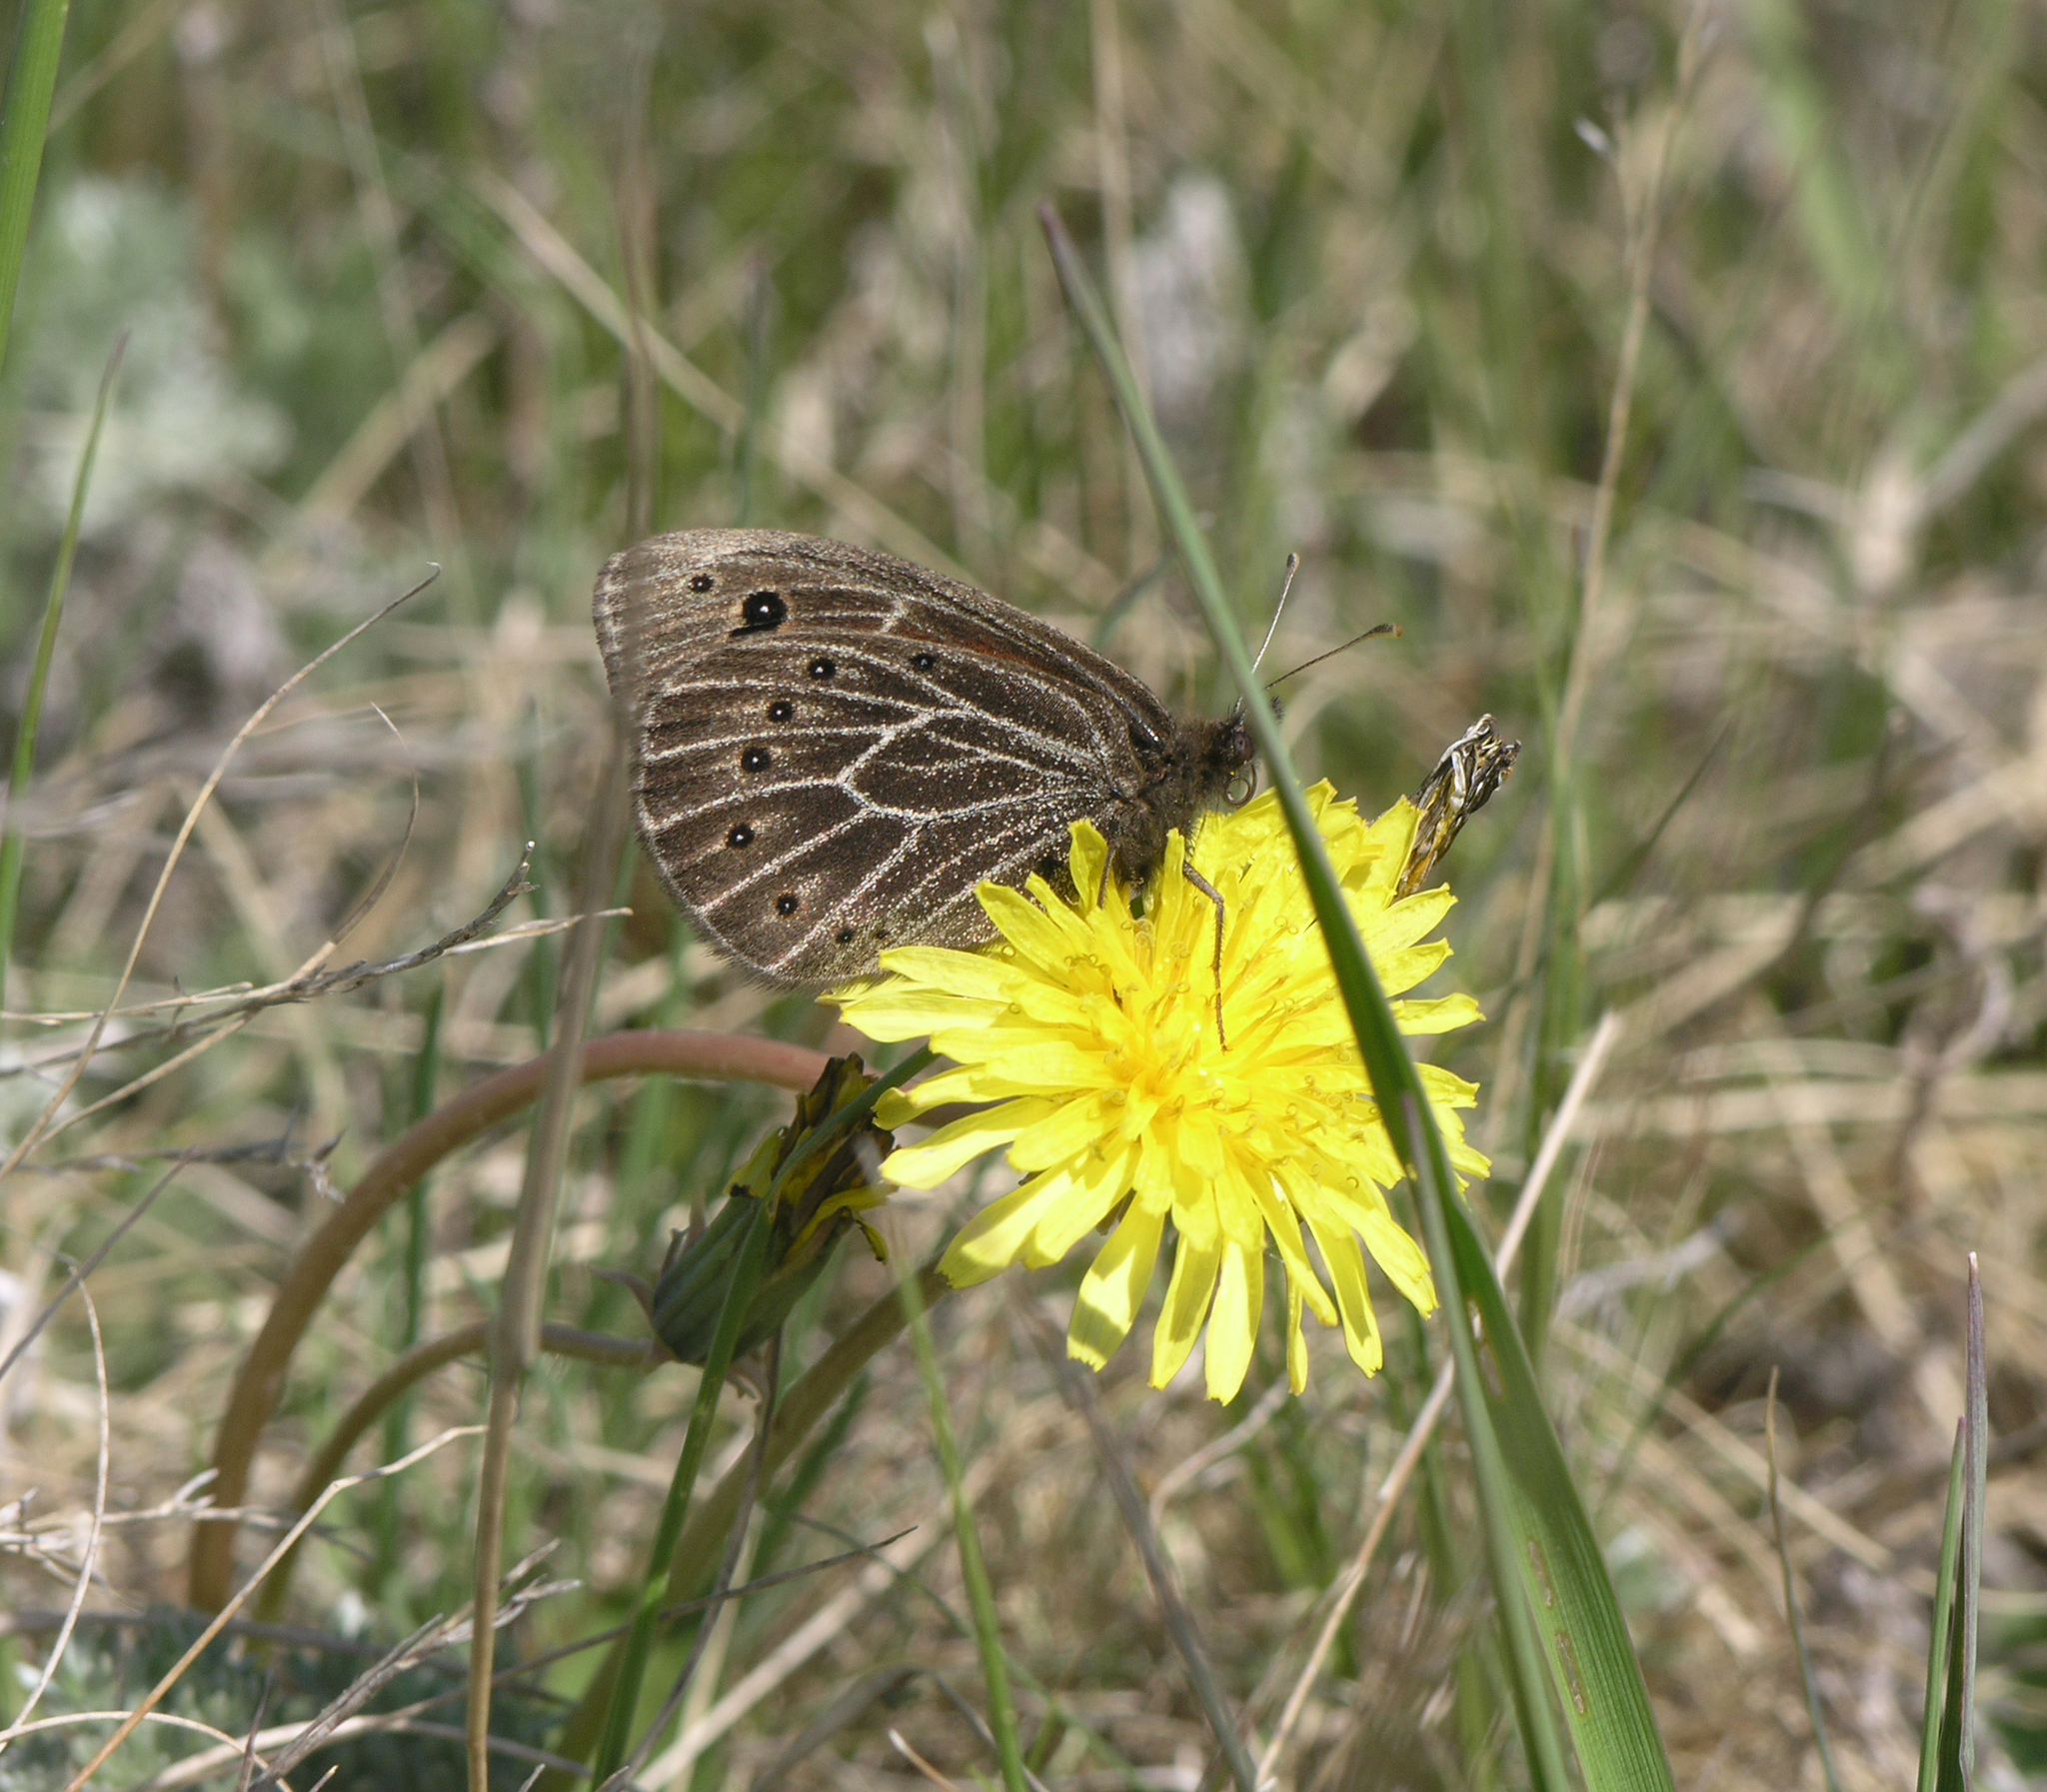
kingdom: Animalia
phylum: Arthropoda
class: Insecta
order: Lepidoptera
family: Nymphalidae
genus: Proterebia
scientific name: Proterebia afra
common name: Dalmatian ringlet
